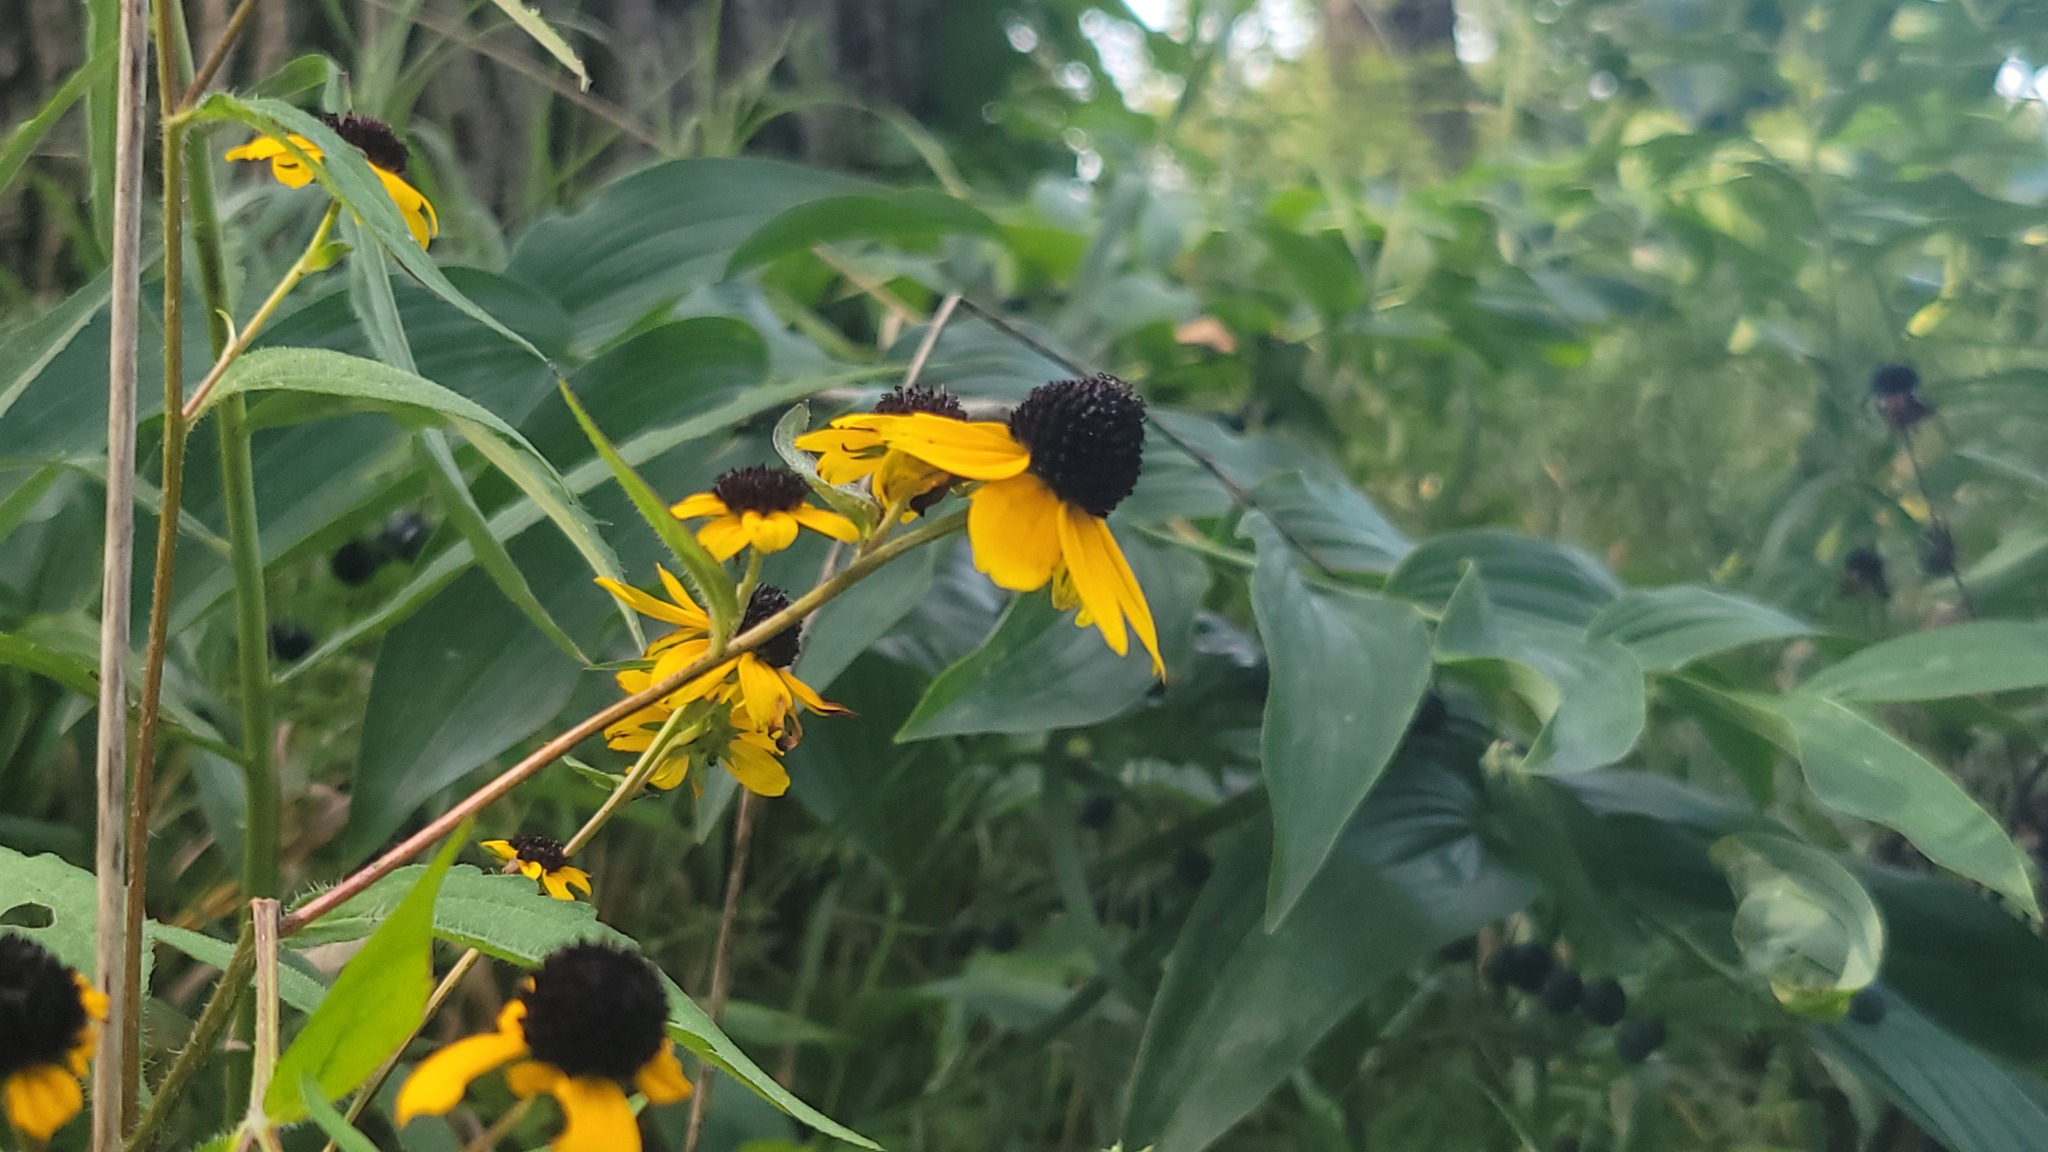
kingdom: Plantae
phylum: Tracheophyta
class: Magnoliopsida
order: Asterales
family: Asteraceae
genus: Rudbeckia
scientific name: Rudbeckia triloba
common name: Thin-leaved coneflower
